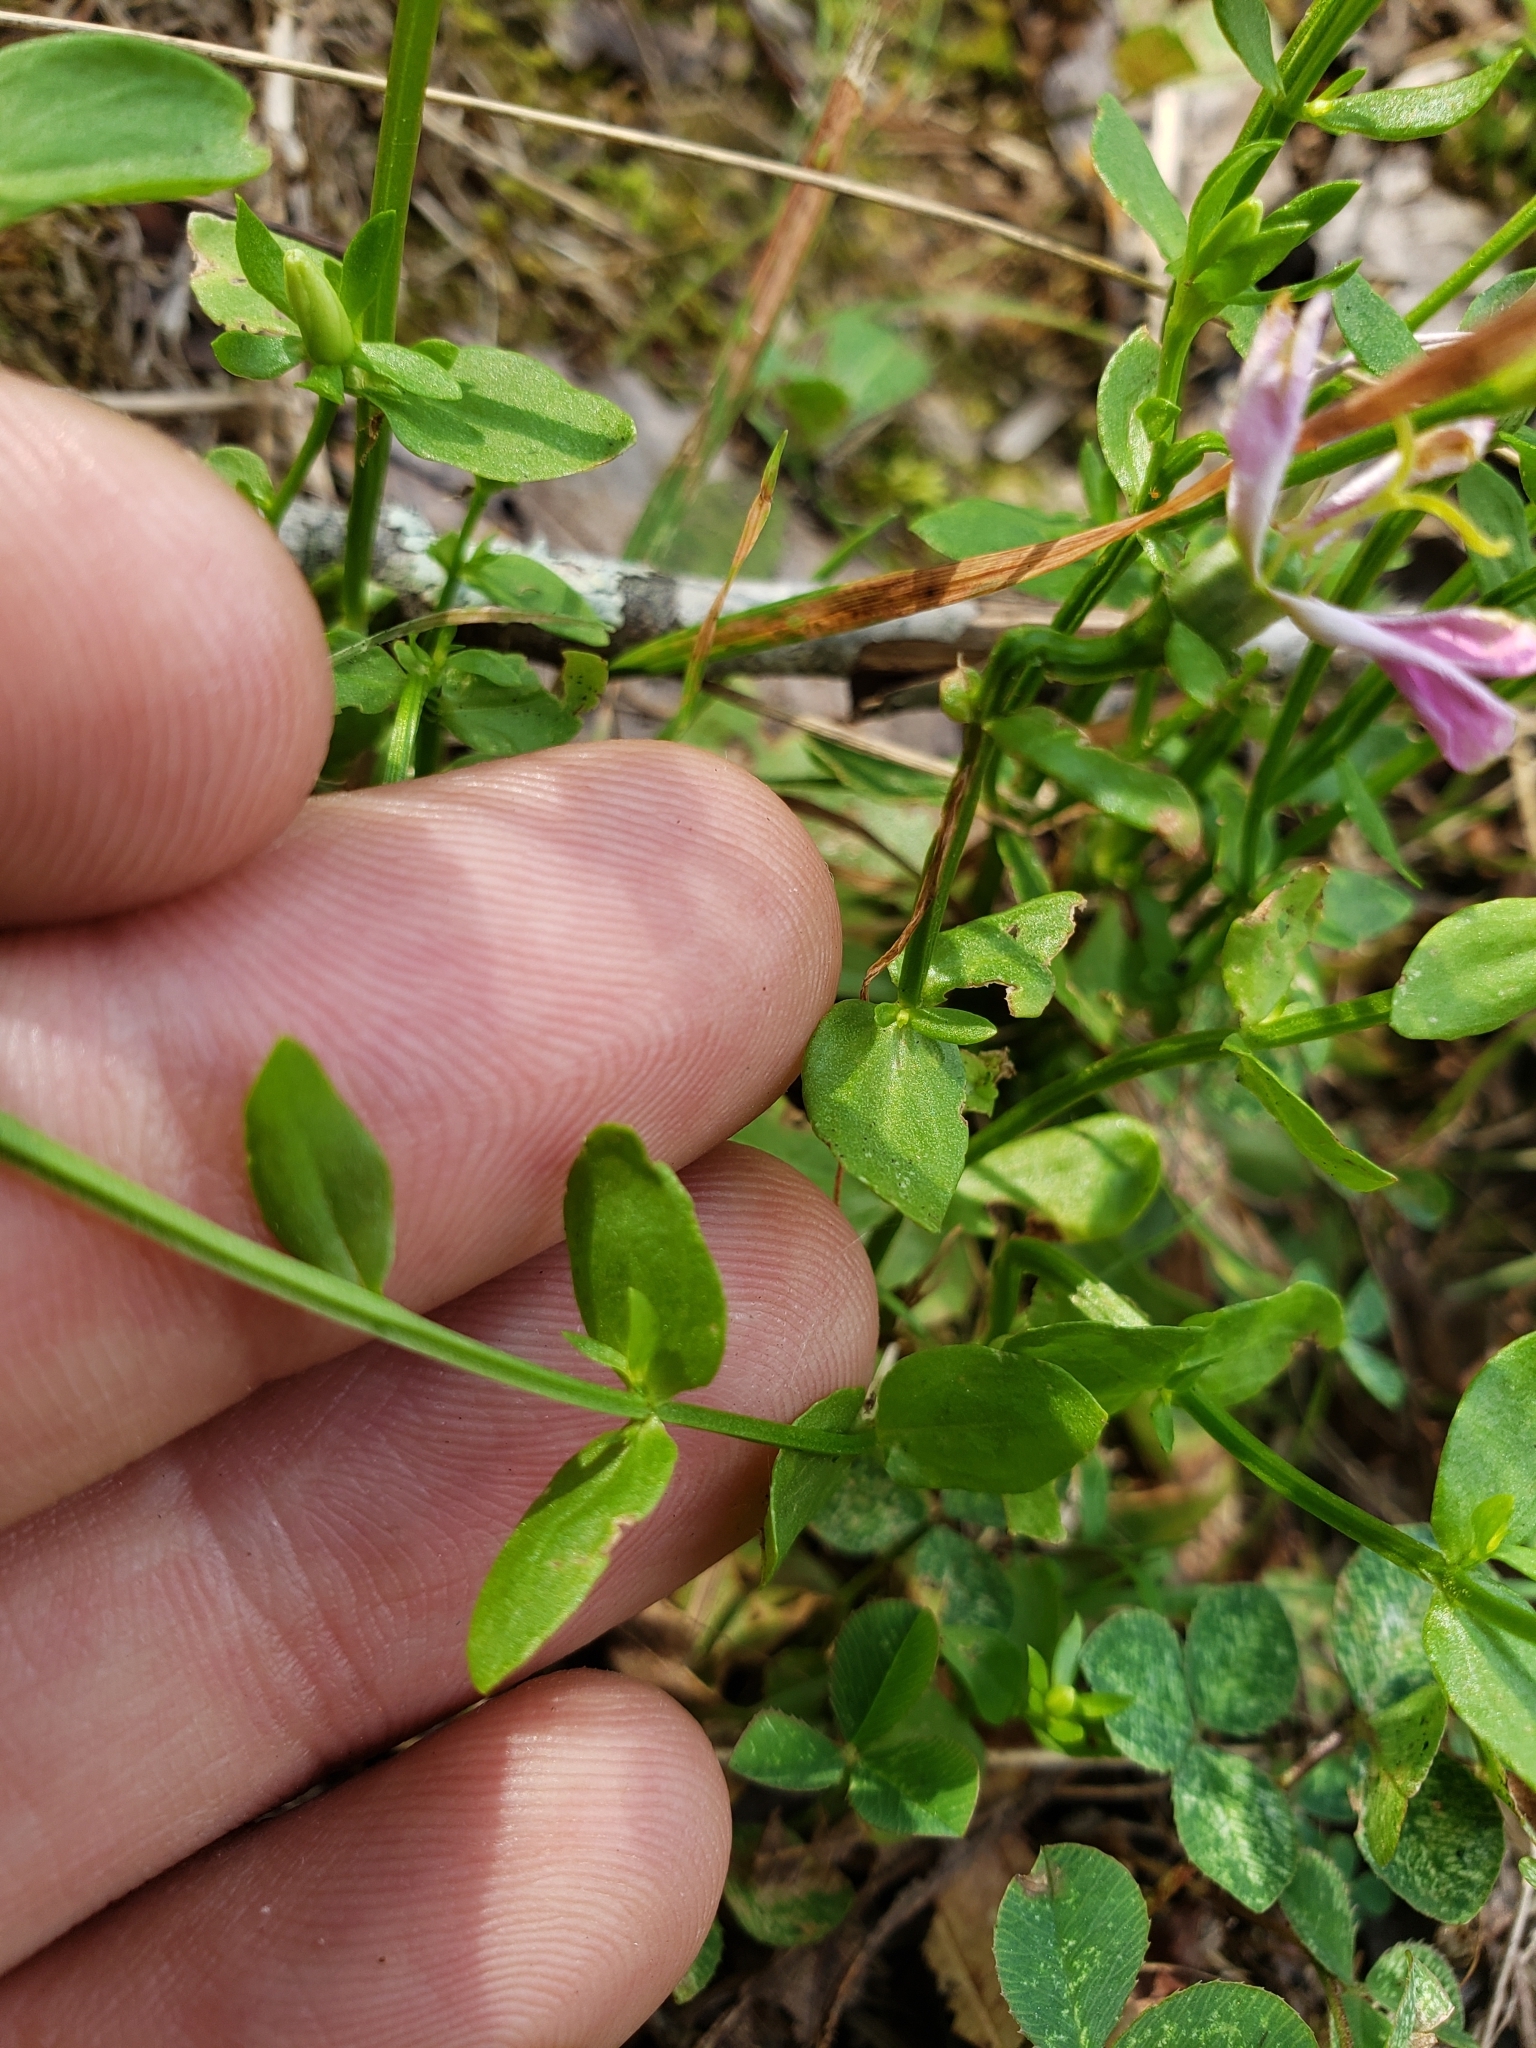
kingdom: Plantae
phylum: Tracheophyta
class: Magnoliopsida
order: Gentianales
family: Gentianaceae
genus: Sabatia
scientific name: Sabatia angularis
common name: Rose-pink
